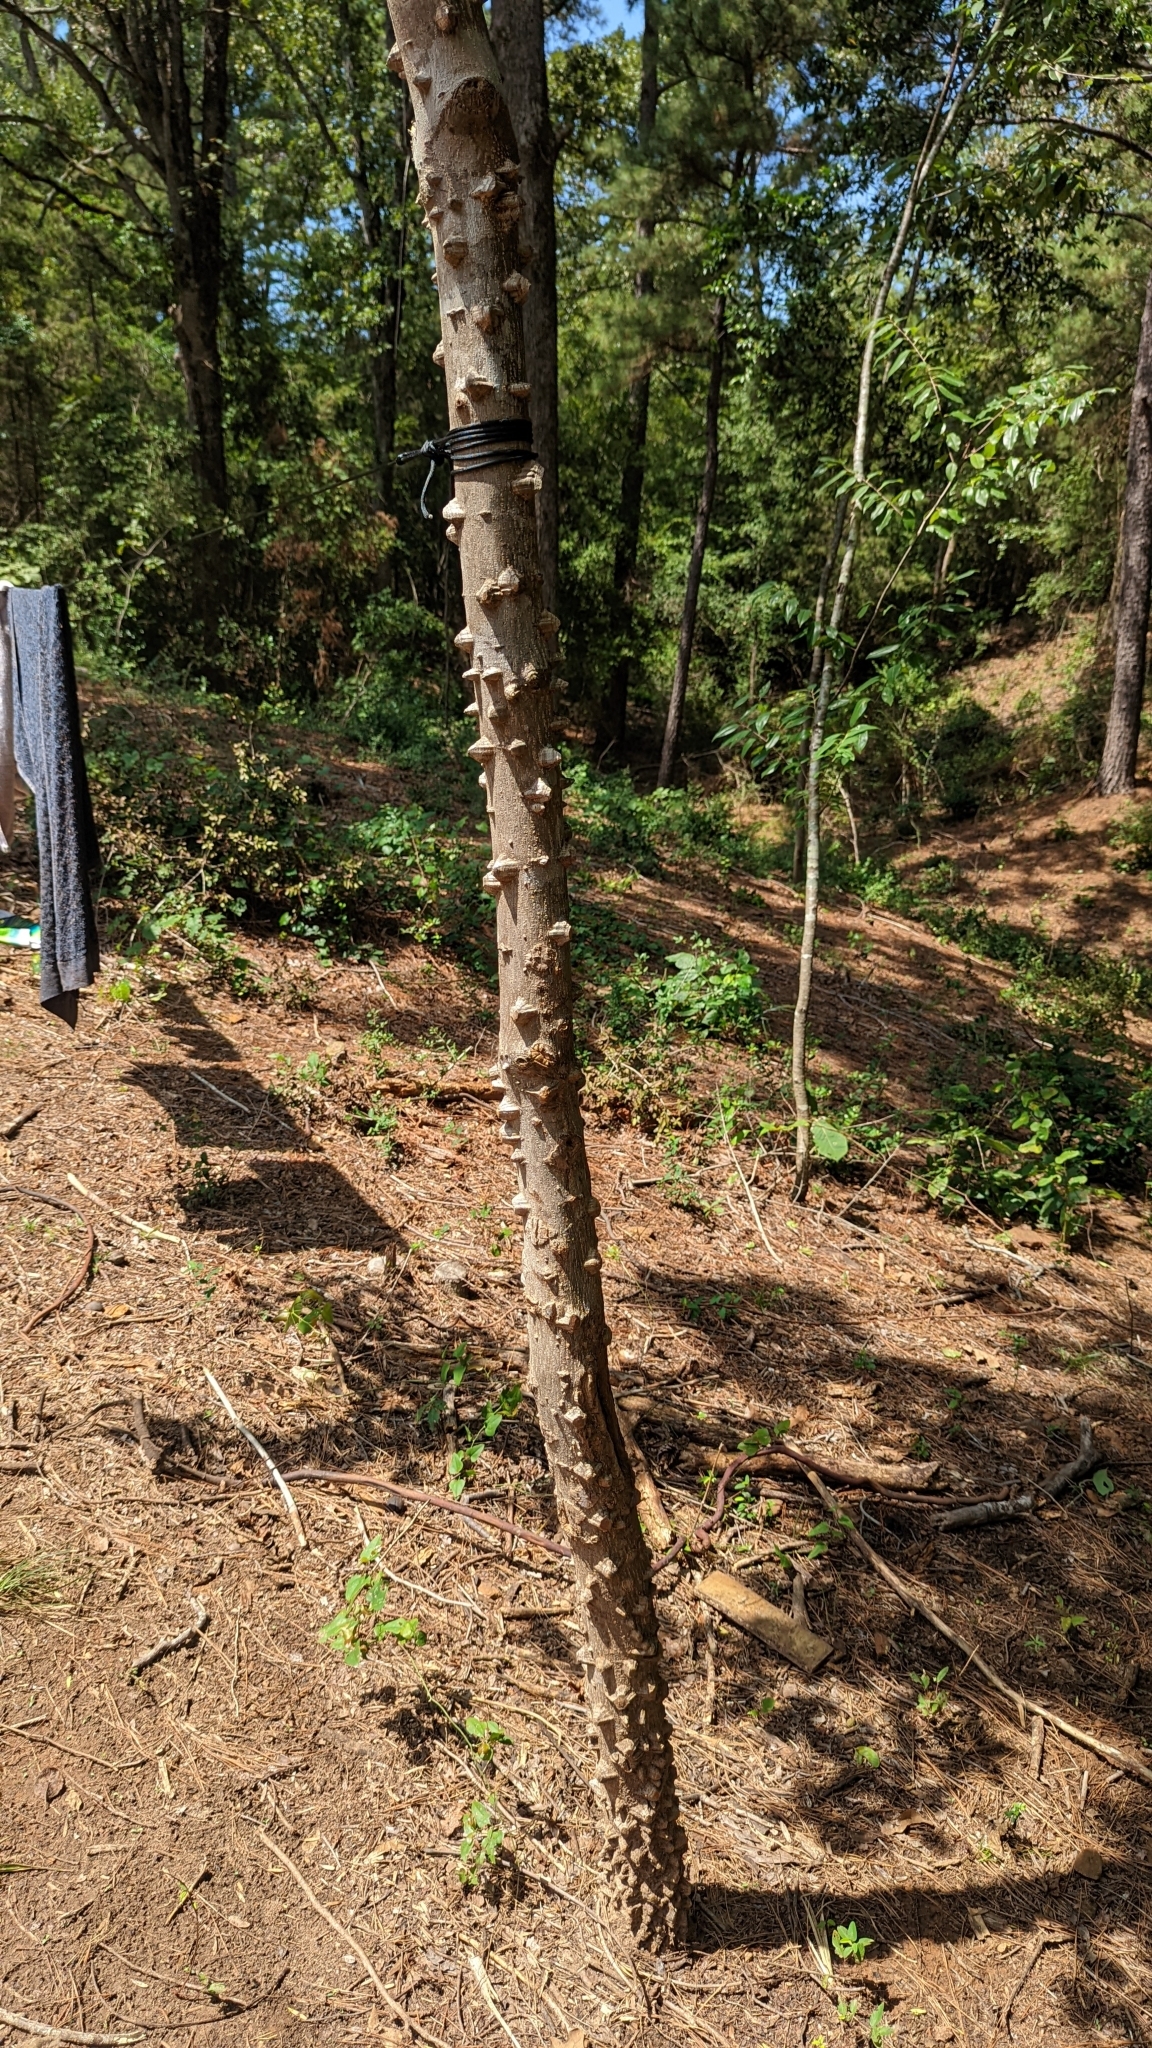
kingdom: Plantae
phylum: Tracheophyta
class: Magnoliopsida
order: Sapindales
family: Rutaceae
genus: Zanthoxylum
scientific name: Zanthoxylum clava-herculis
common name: Hercules'-club
